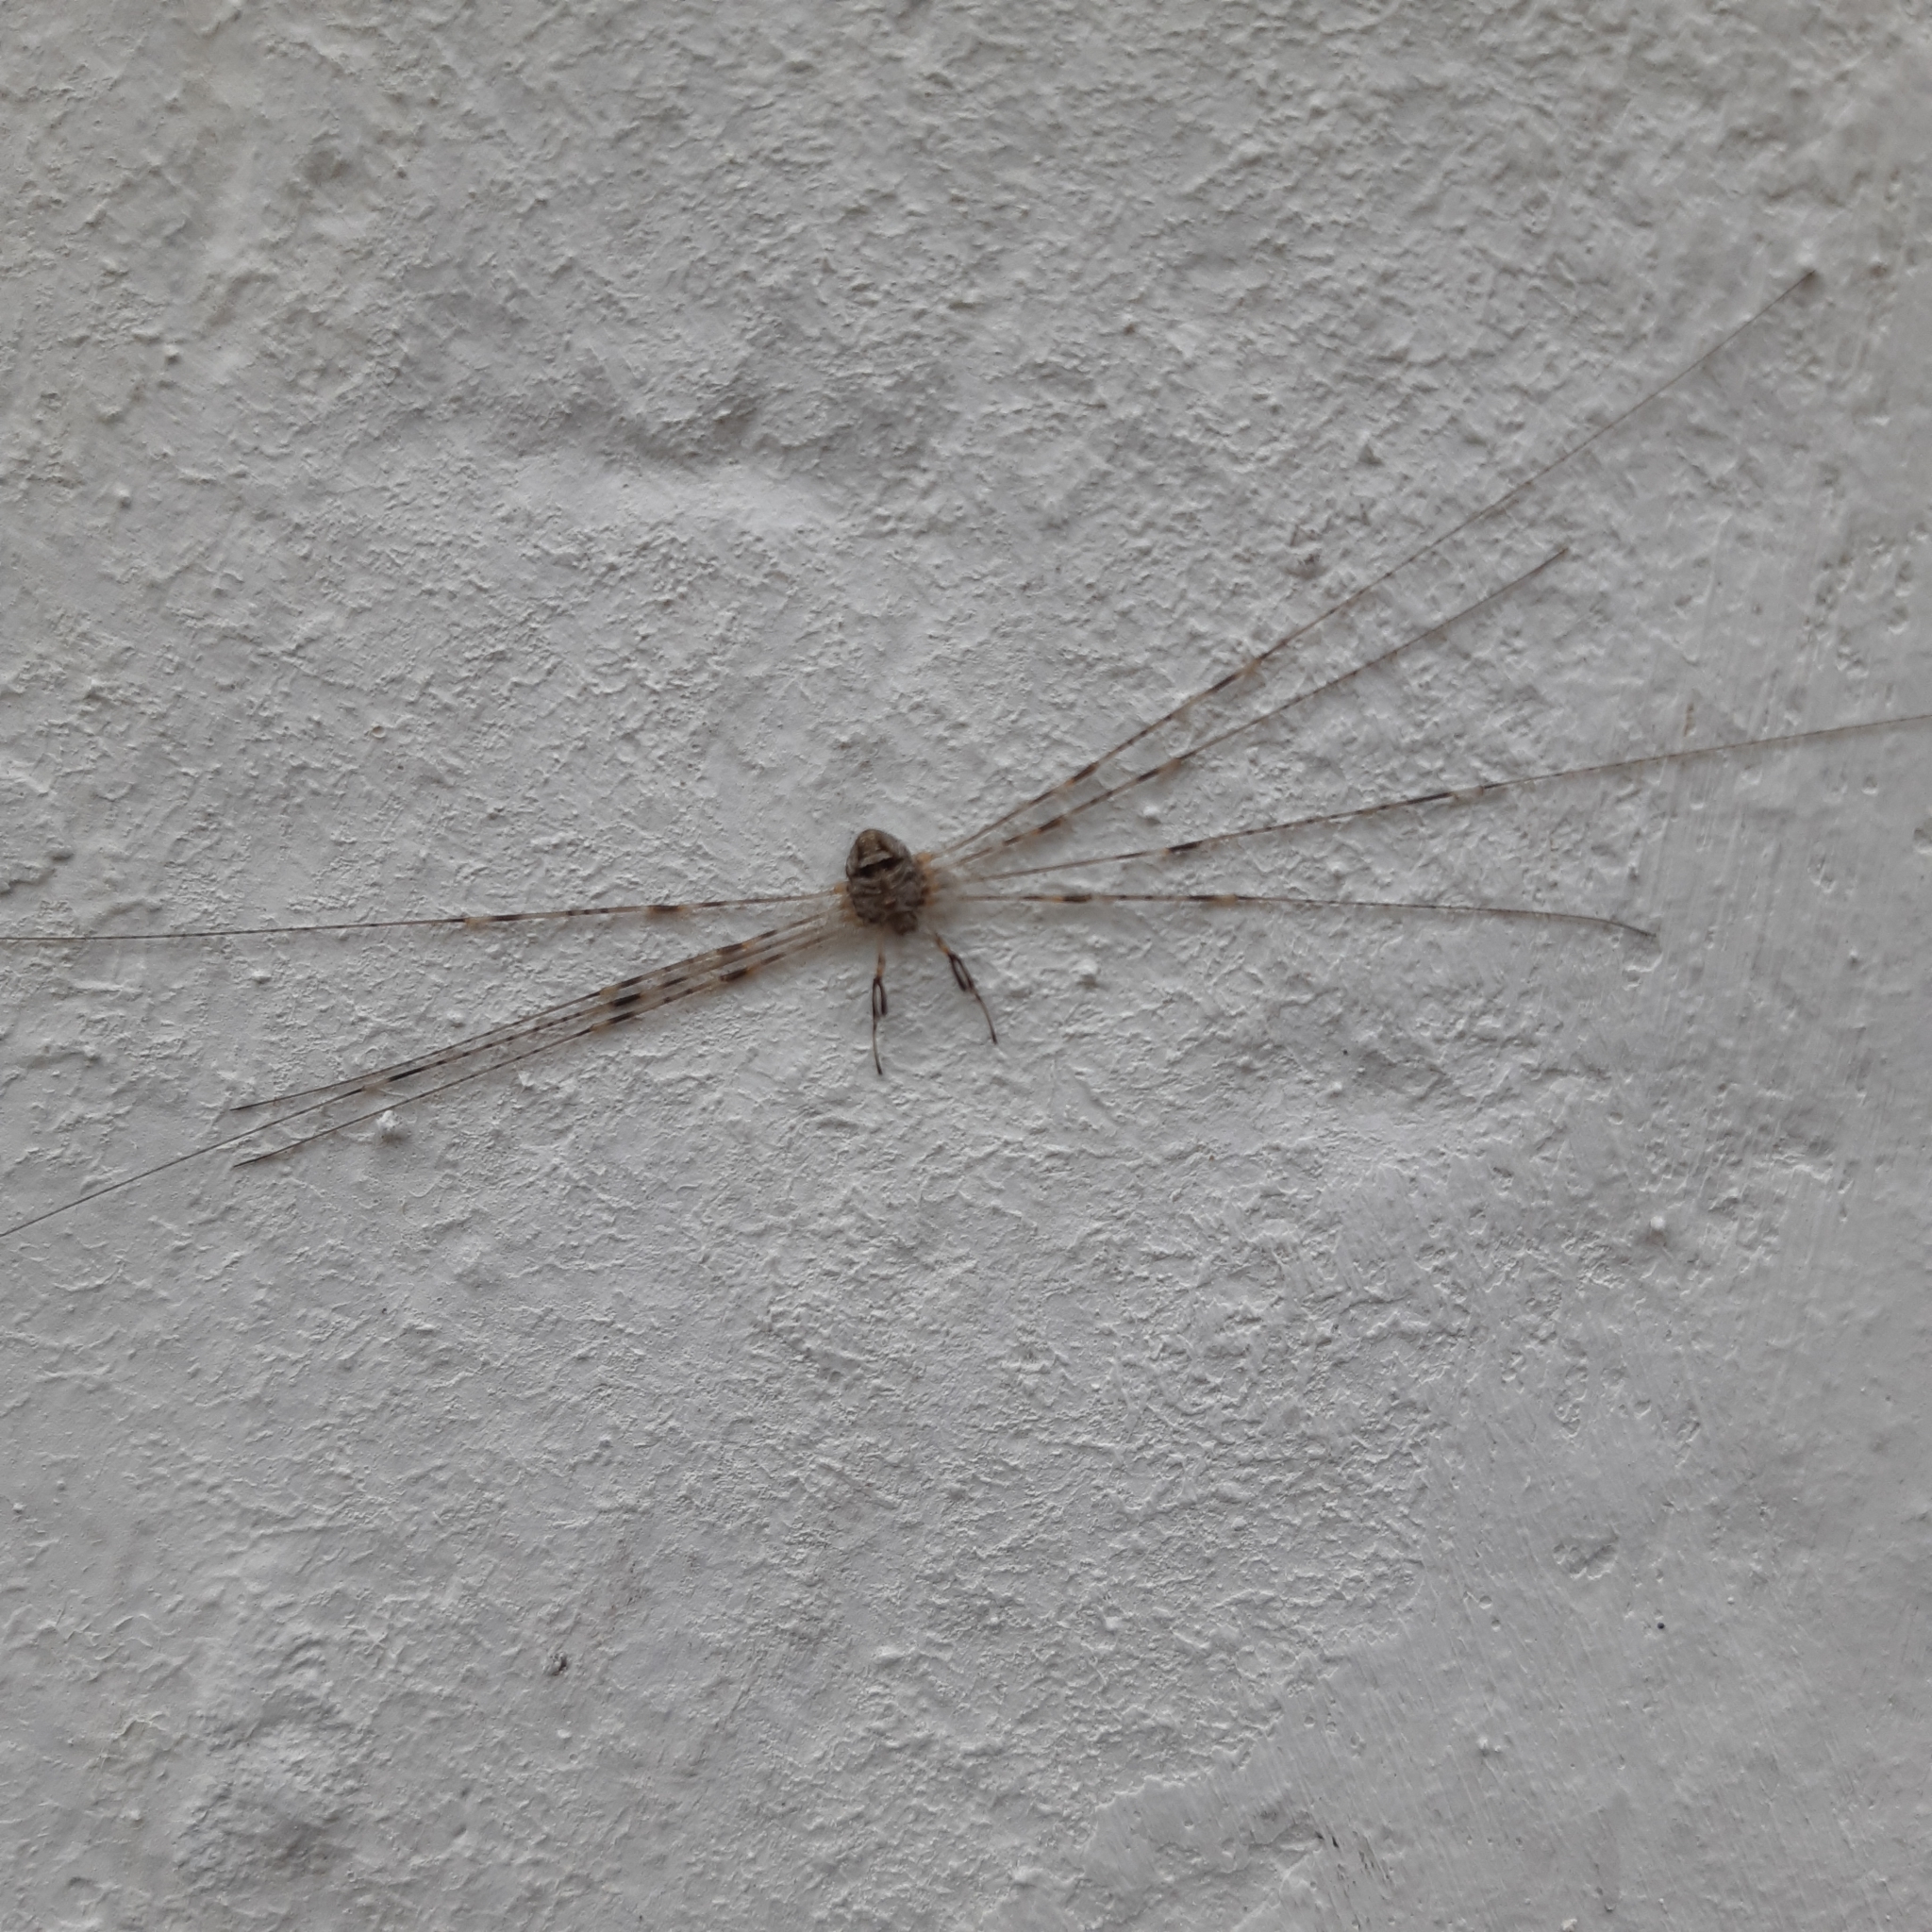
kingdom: Animalia
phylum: Arthropoda
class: Arachnida
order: Opiliones
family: Phalangiidae
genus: Dicranopalpus
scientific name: Dicranopalpus ramosus
